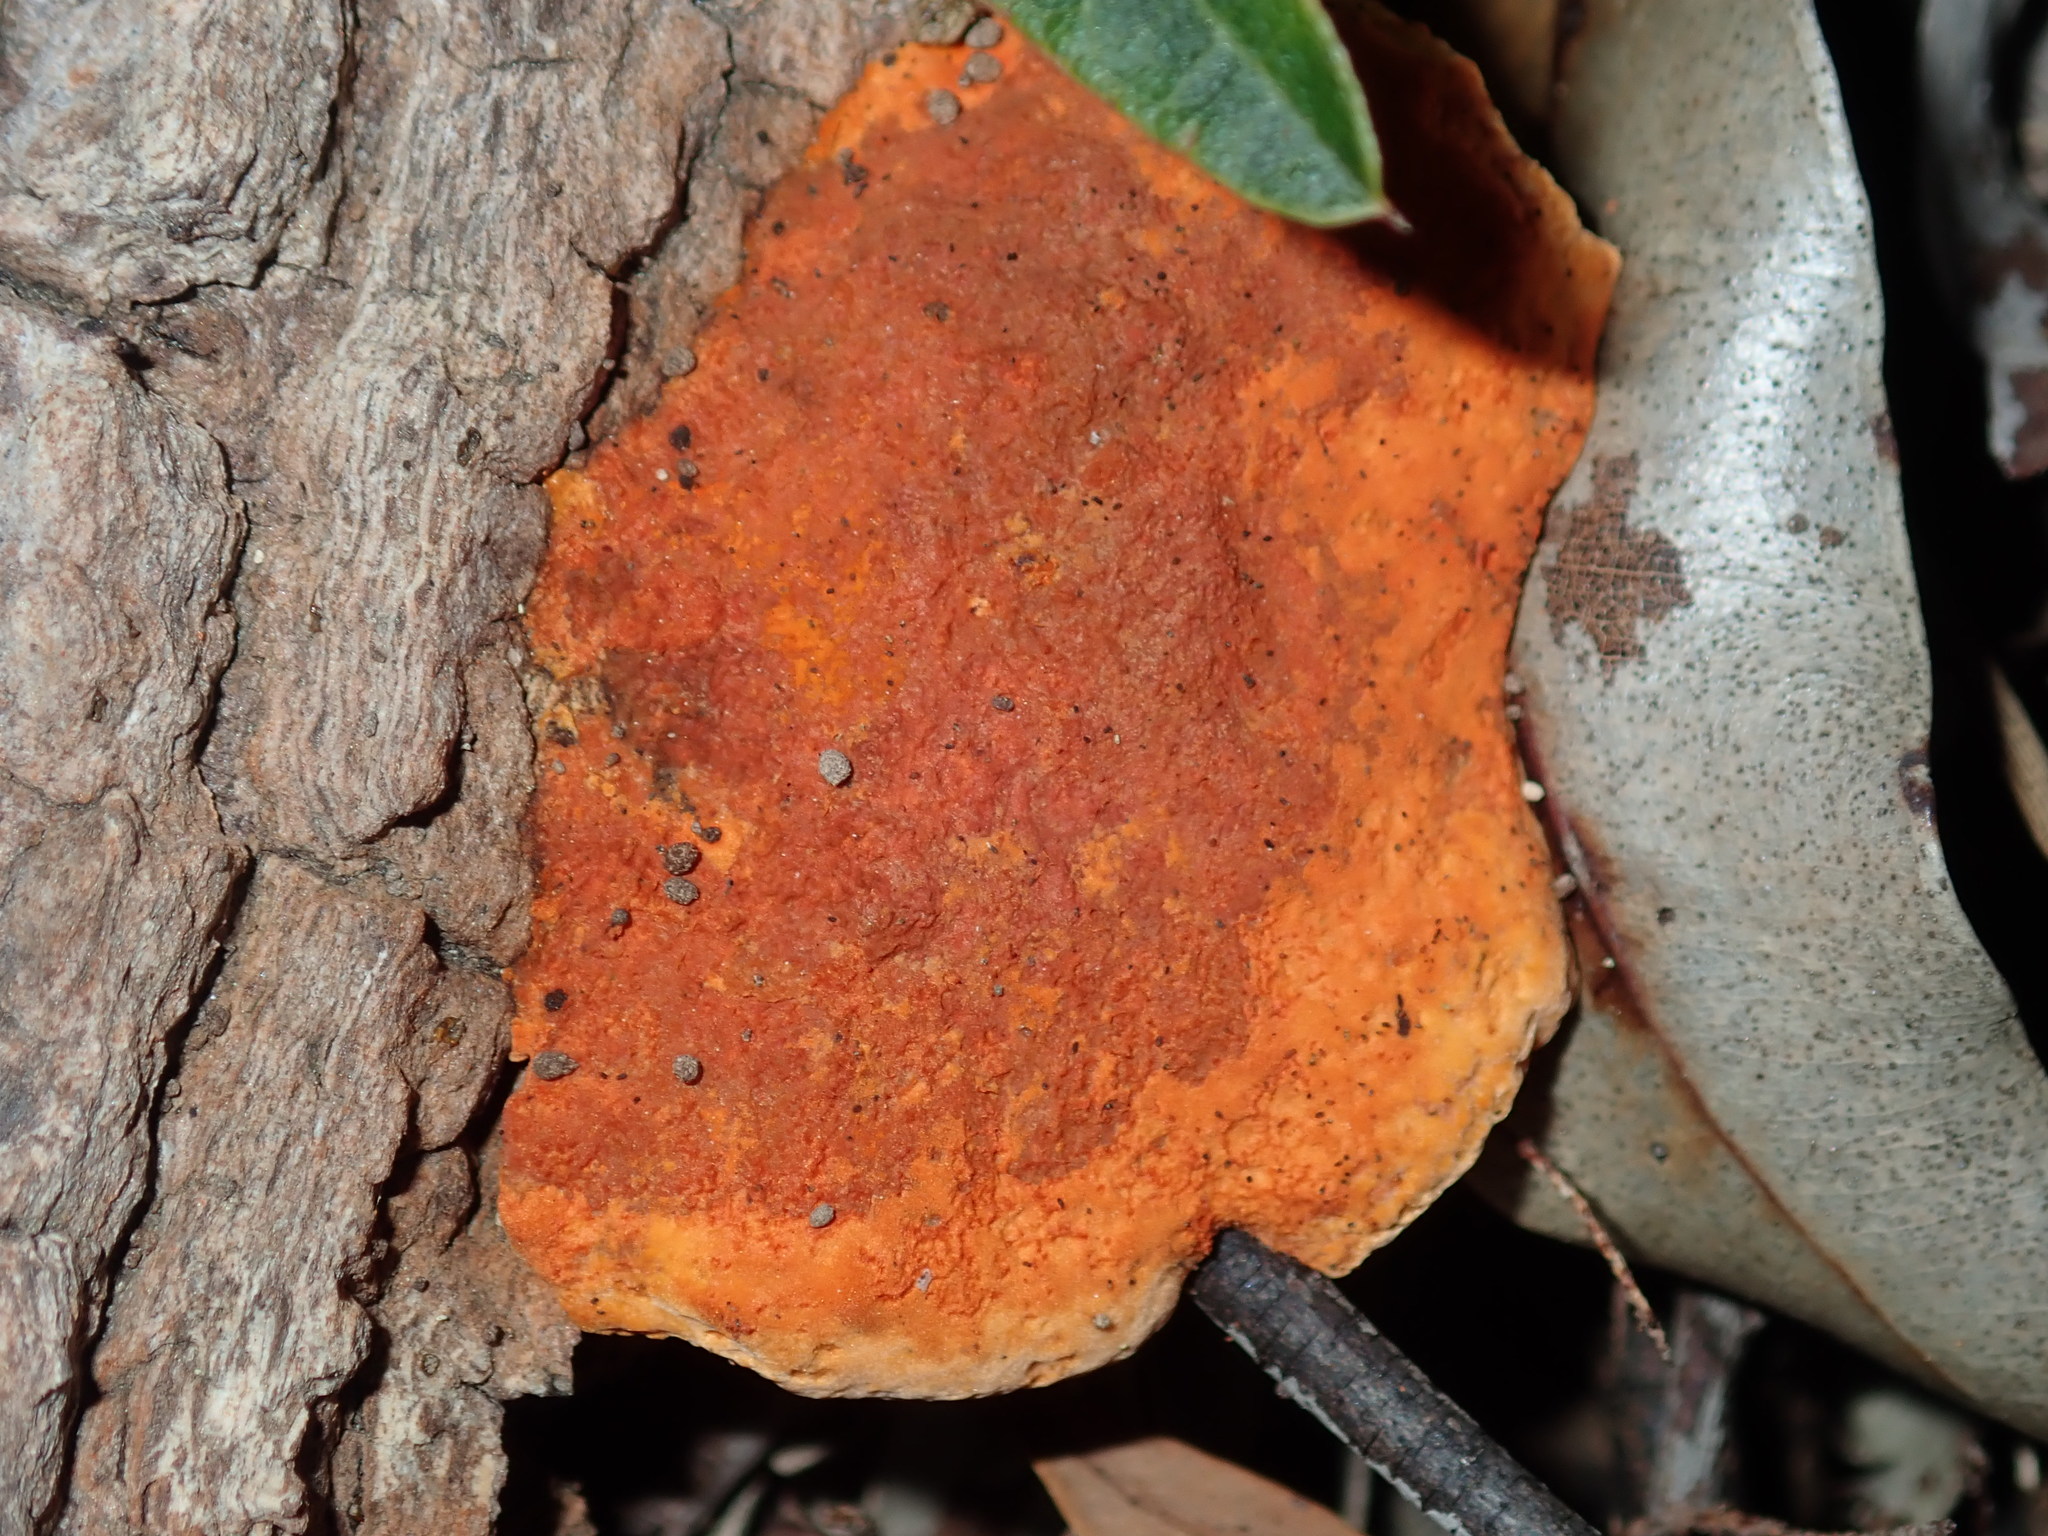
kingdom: Fungi
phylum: Basidiomycota
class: Agaricomycetes
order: Polyporales
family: Polyporaceae
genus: Trametes
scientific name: Trametes coccinea
